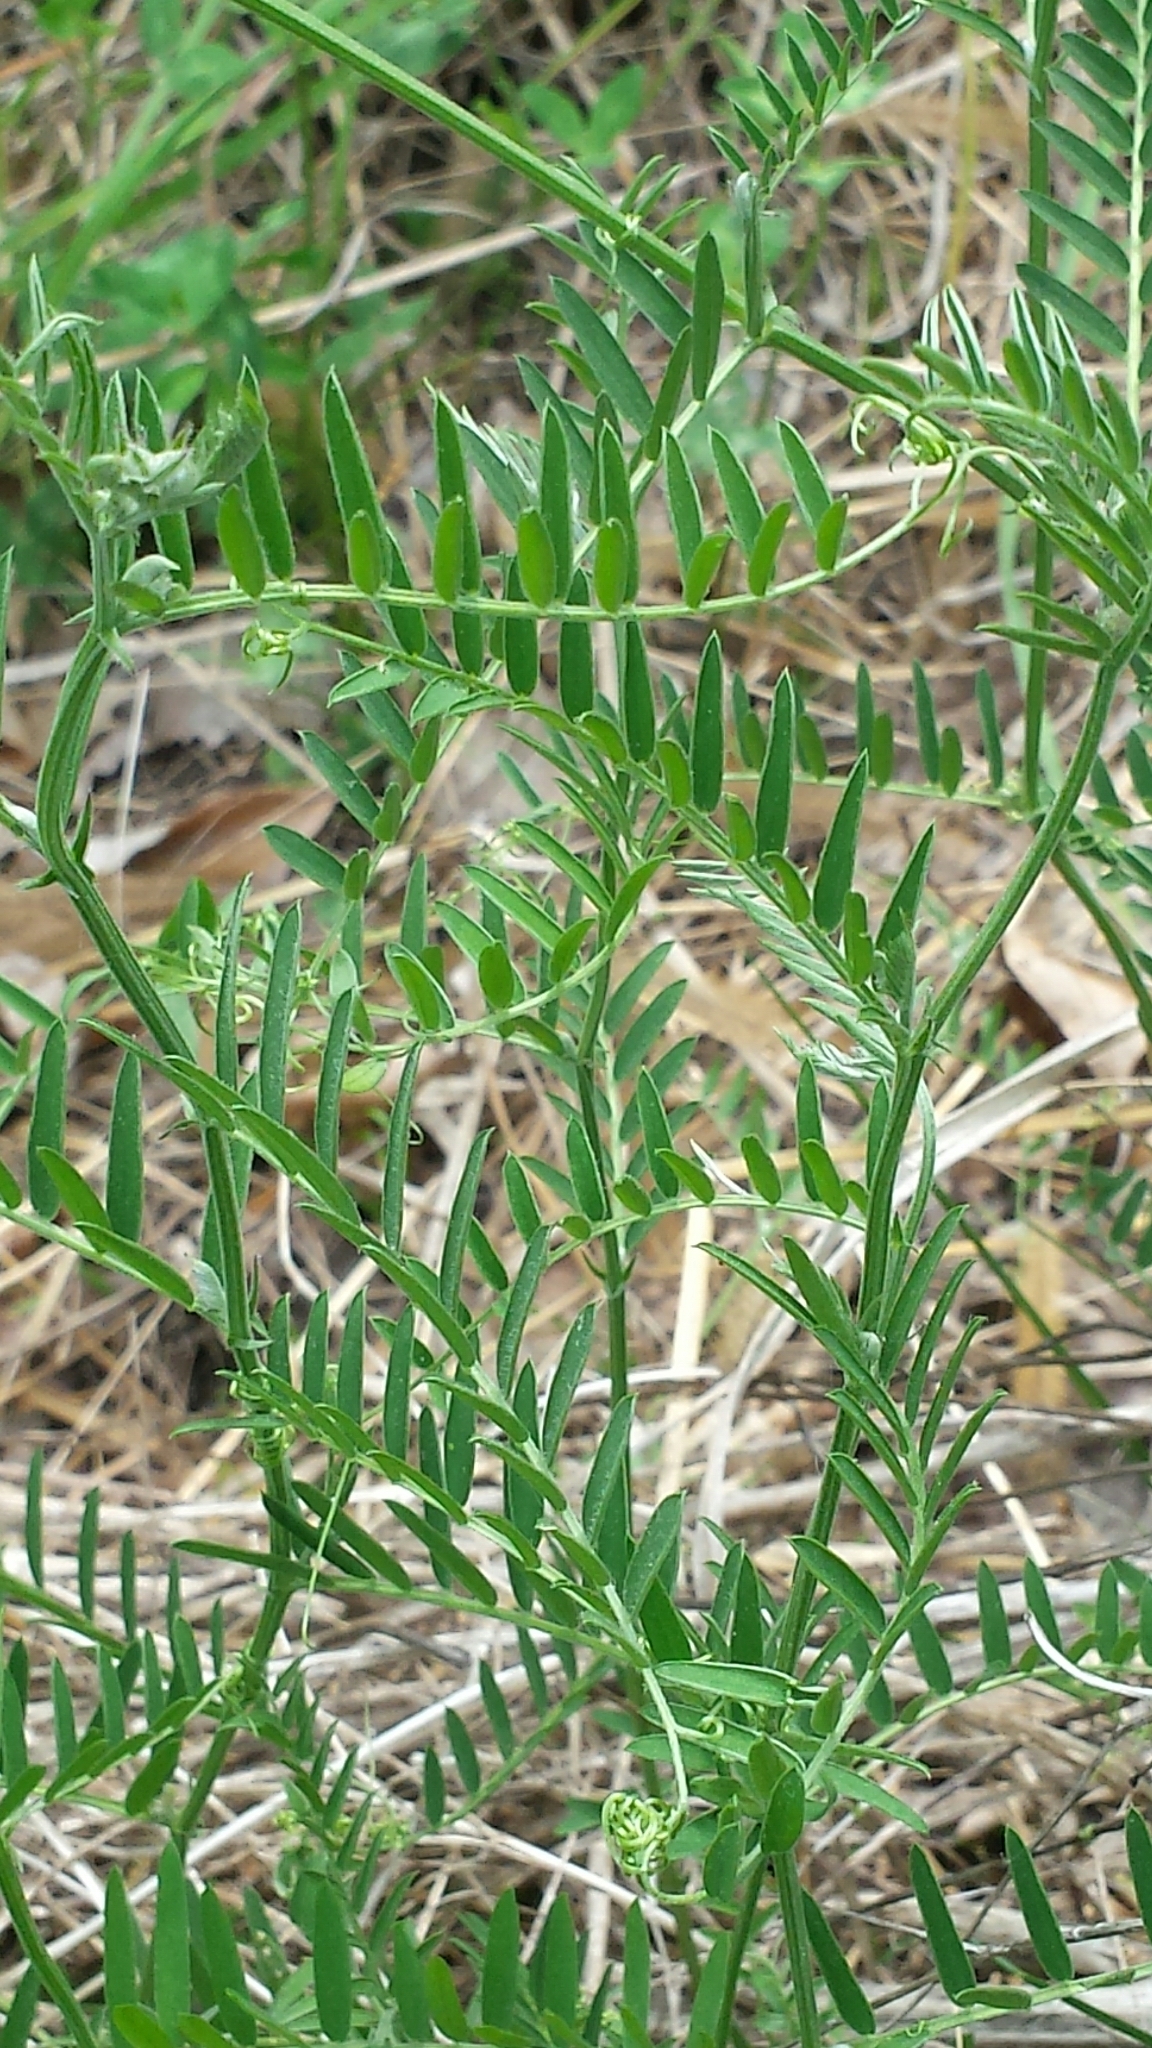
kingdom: Plantae
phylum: Tracheophyta
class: Magnoliopsida
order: Fabales
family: Fabaceae
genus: Vicia
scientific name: Vicia cracca
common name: Bird vetch
